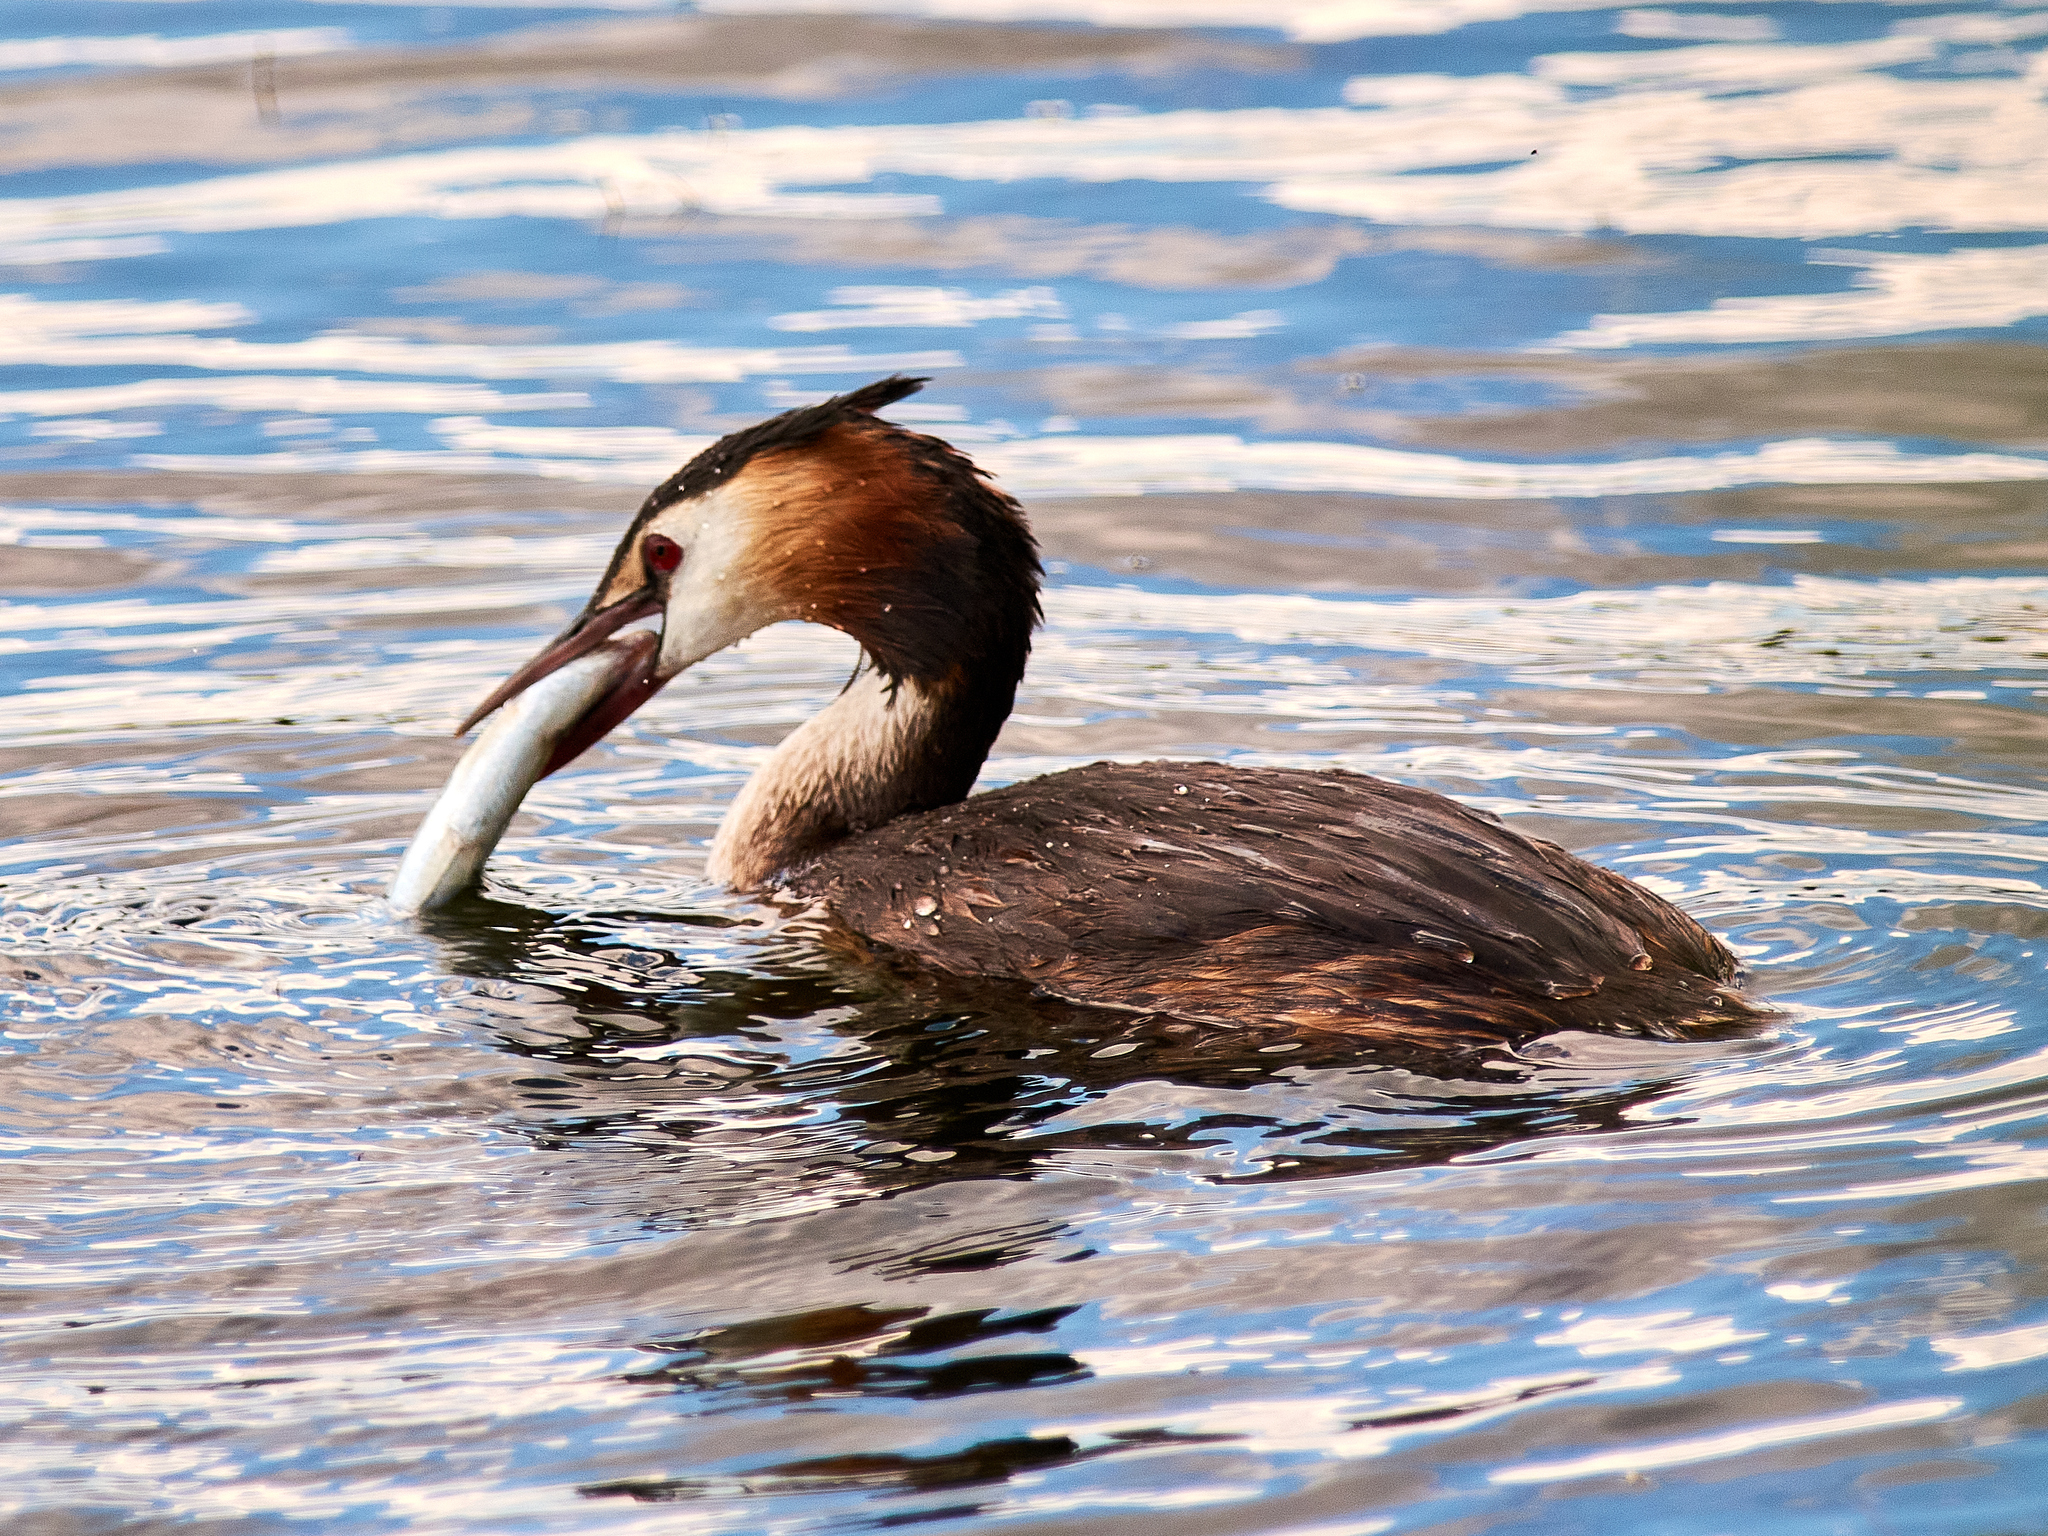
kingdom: Animalia
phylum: Chordata
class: Aves
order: Podicipediformes
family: Podicipedidae
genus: Podiceps
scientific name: Podiceps cristatus
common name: Great crested grebe
